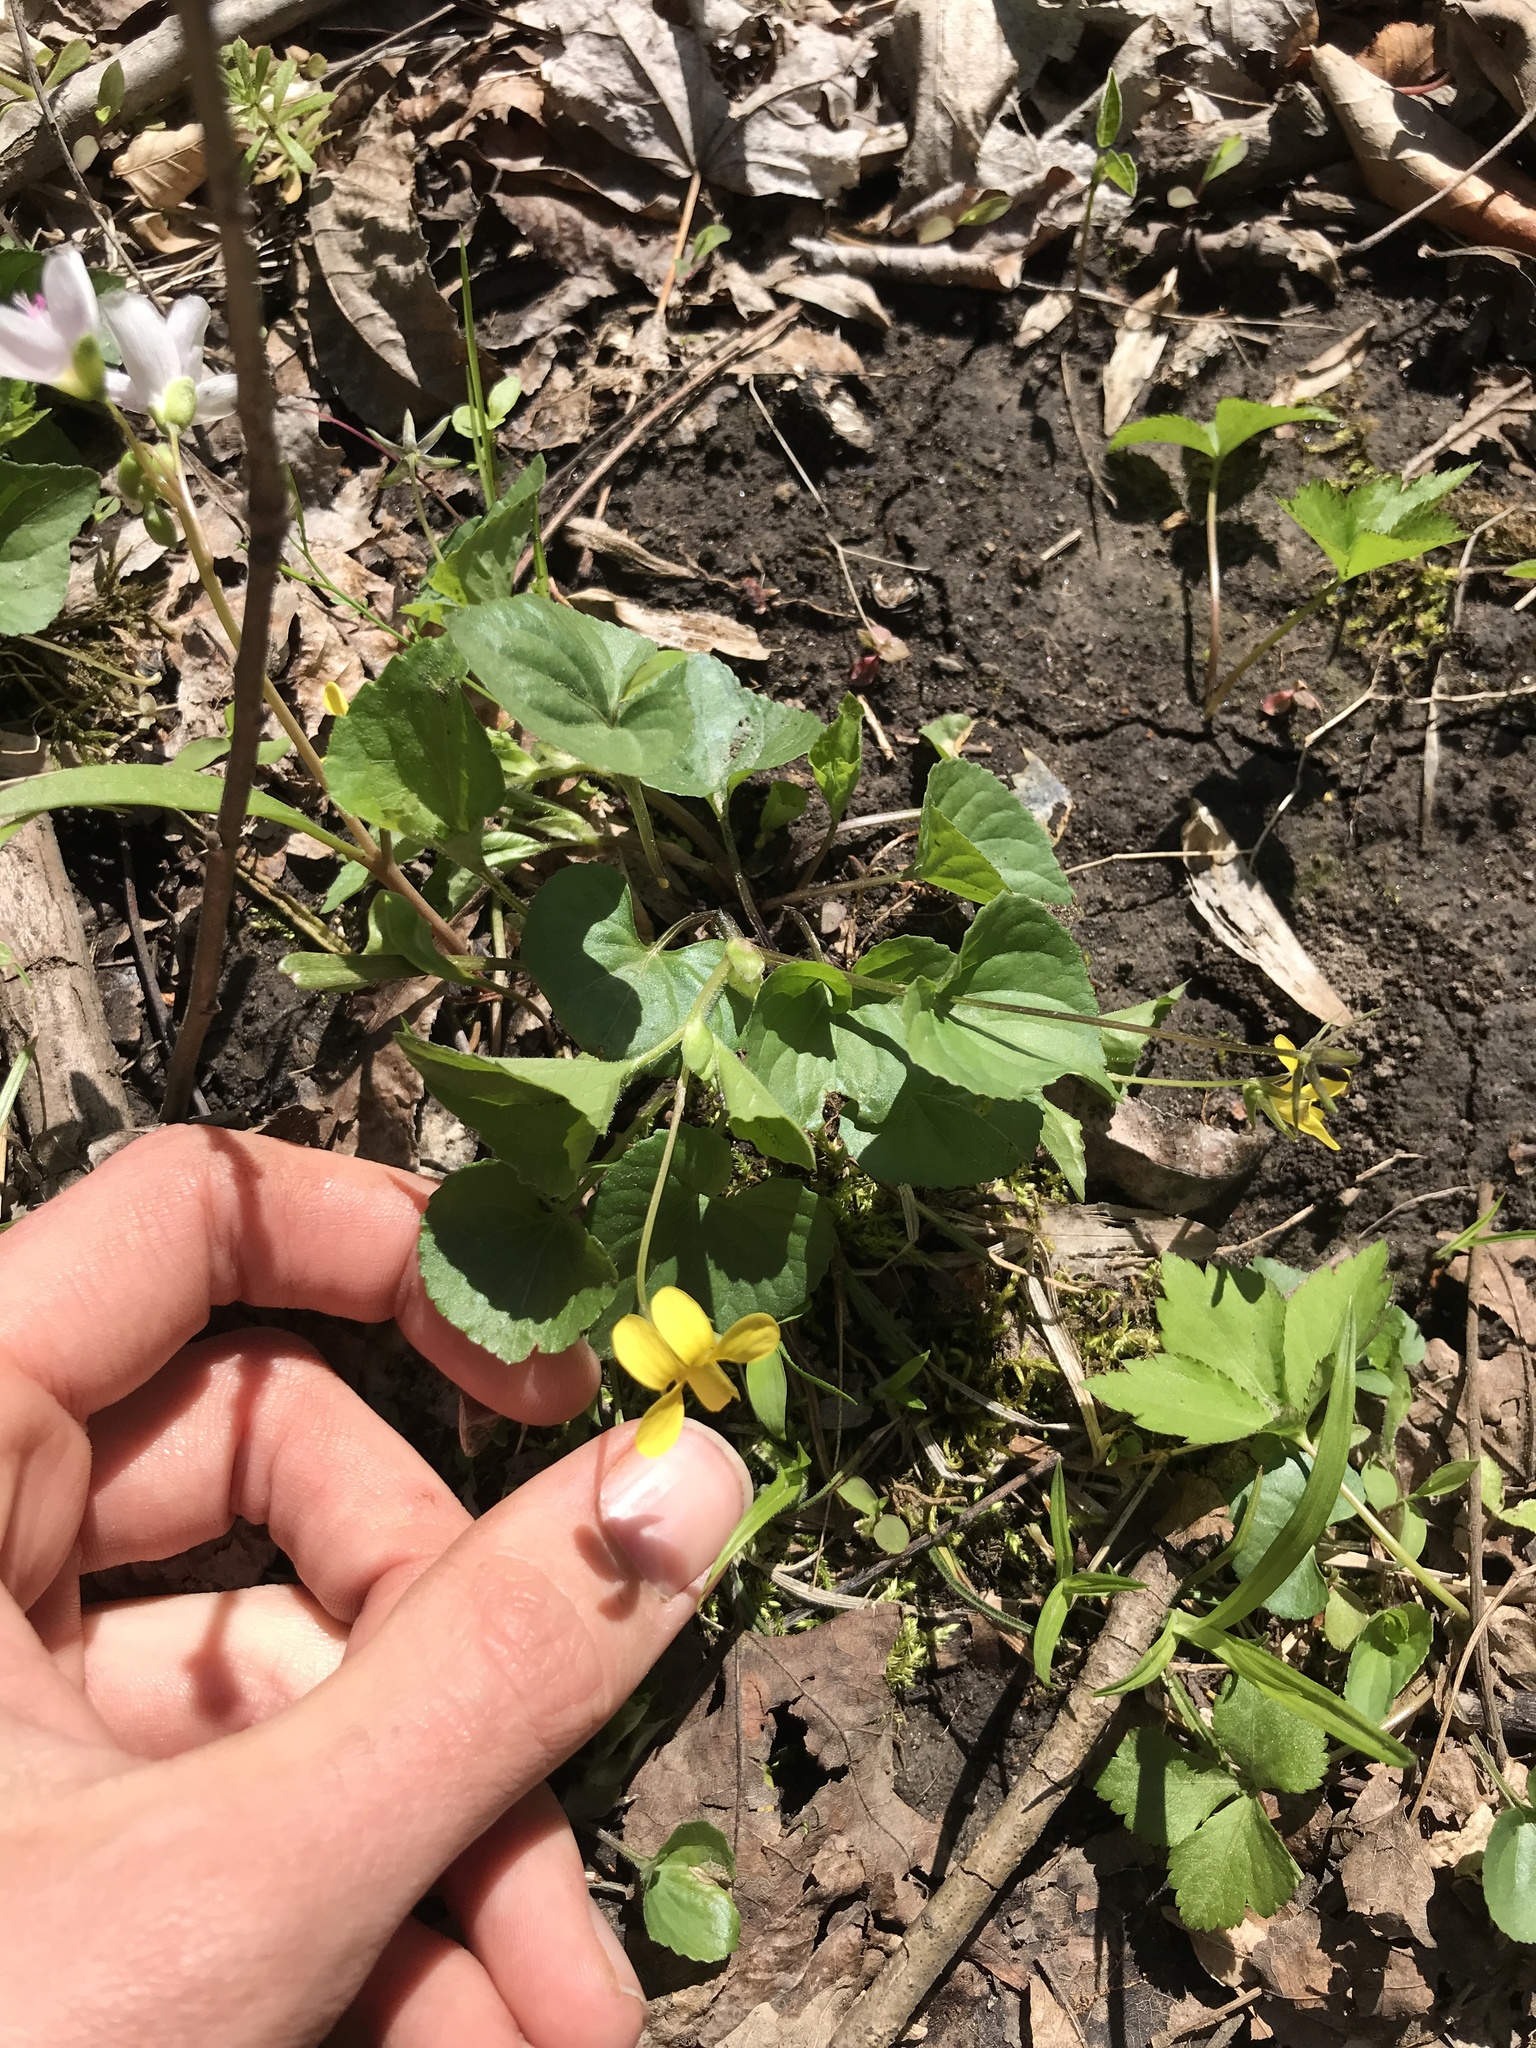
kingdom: Plantae
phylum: Tracheophyta
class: Magnoliopsida
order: Malpighiales
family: Violaceae
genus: Viola
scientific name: Viola eriocarpa
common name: Smooth yellow violet
